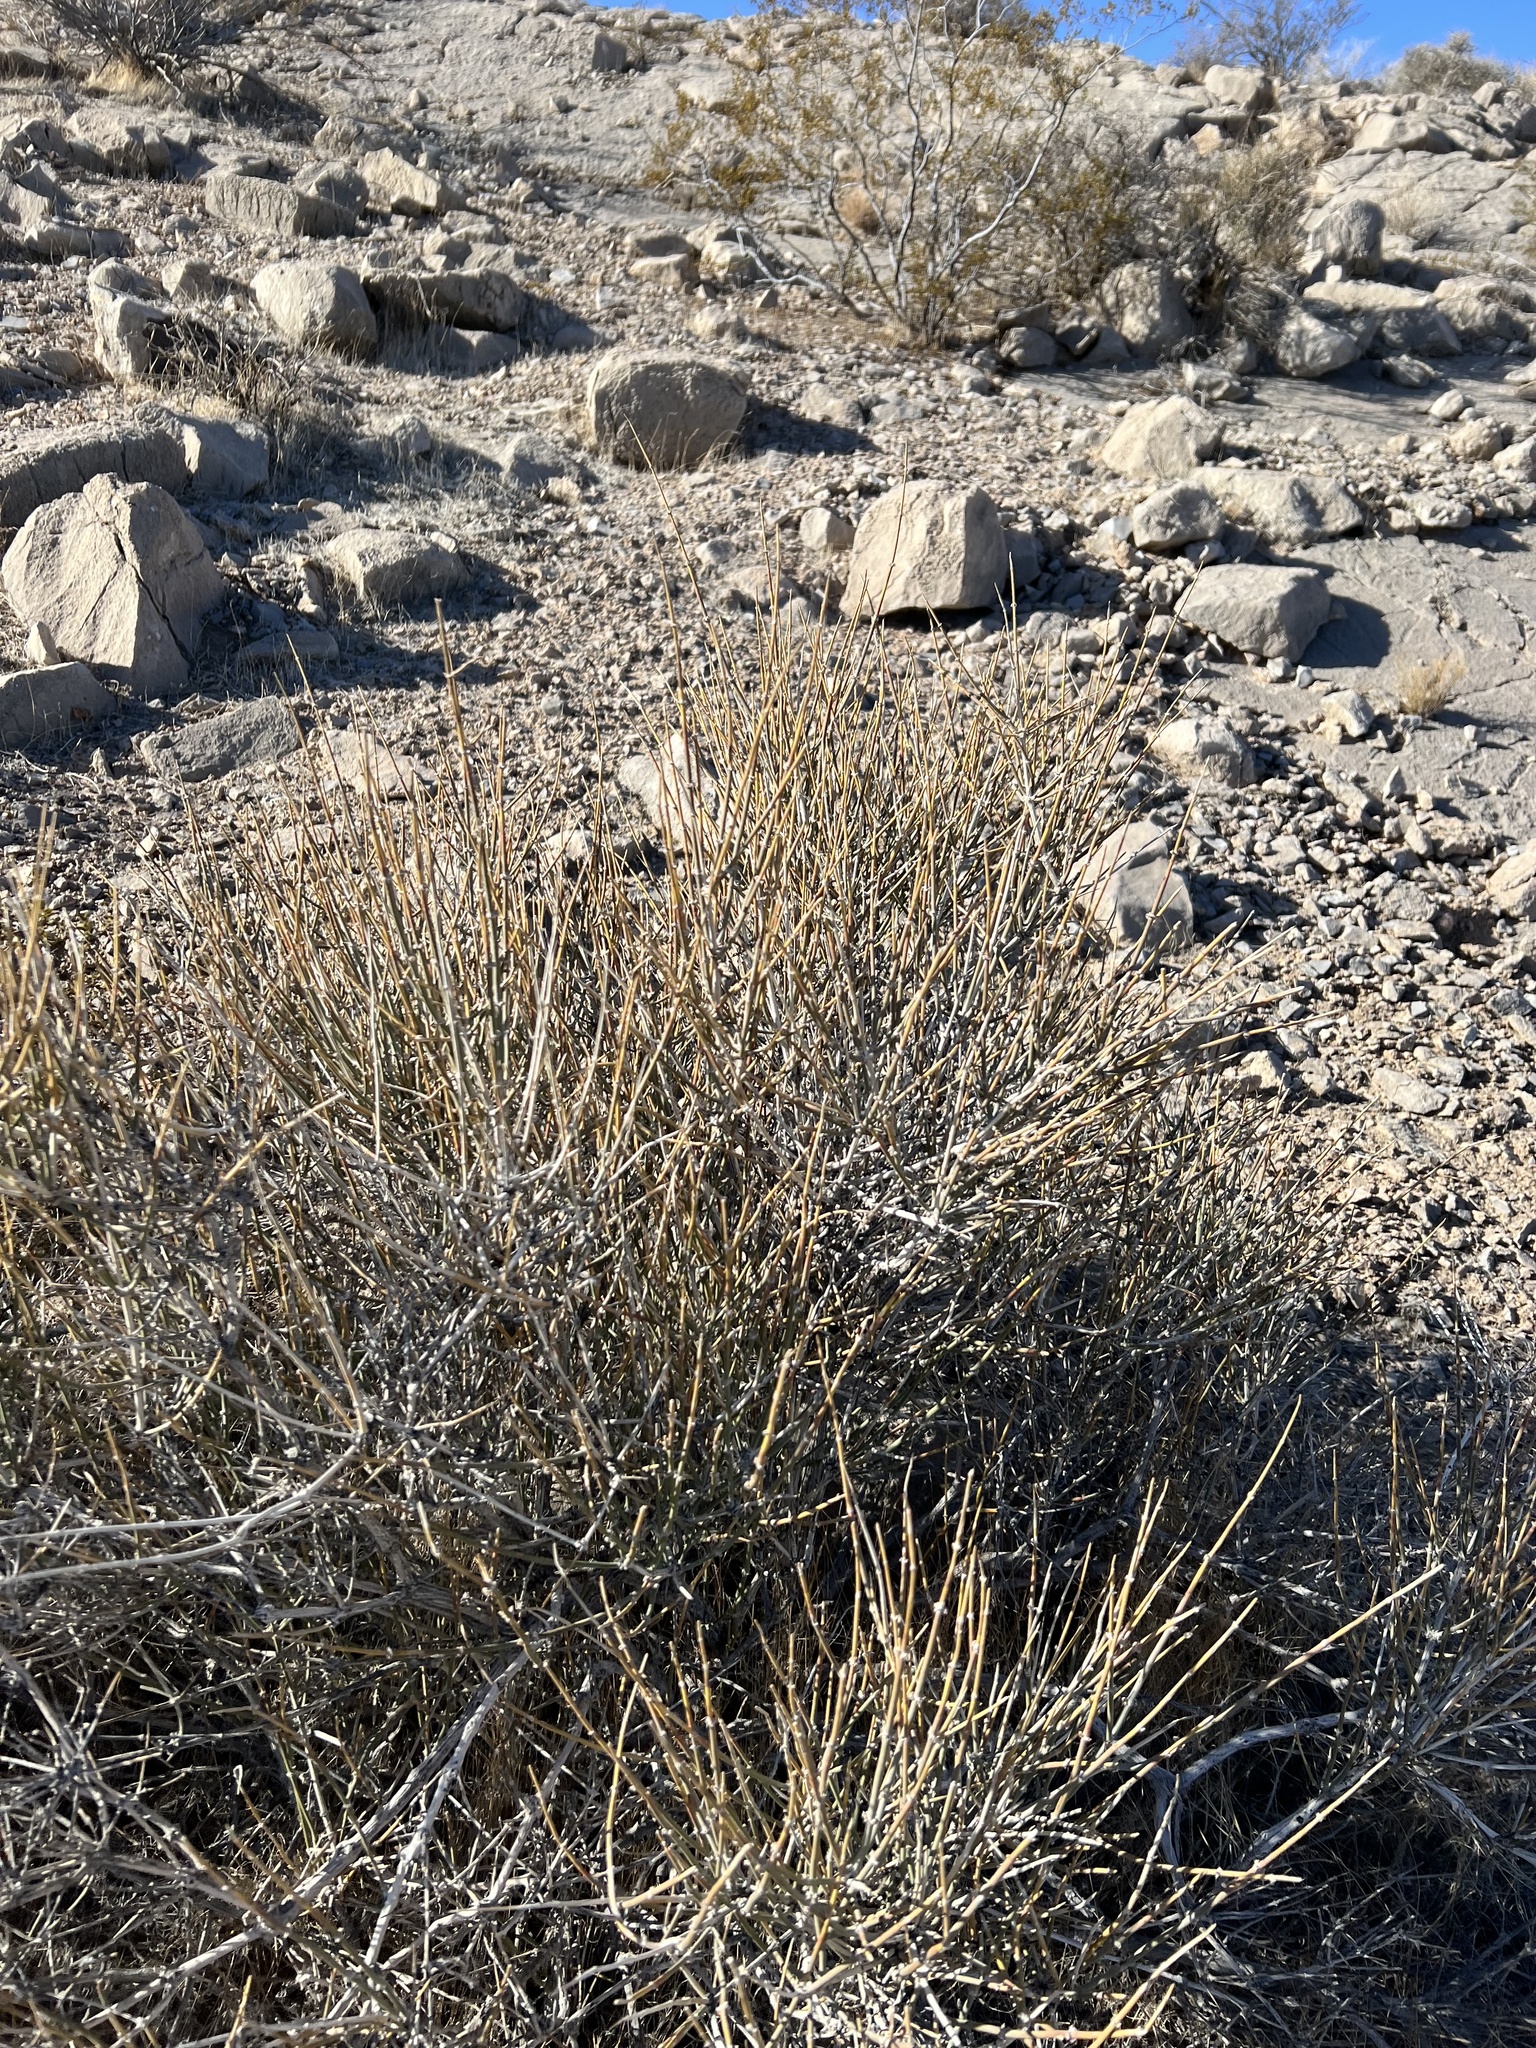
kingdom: Plantae
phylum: Tracheophyta
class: Gnetopsida
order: Ephedrales
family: Ephedraceae
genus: Ephedra
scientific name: Ephedra nevadensis
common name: Gray ephedra
